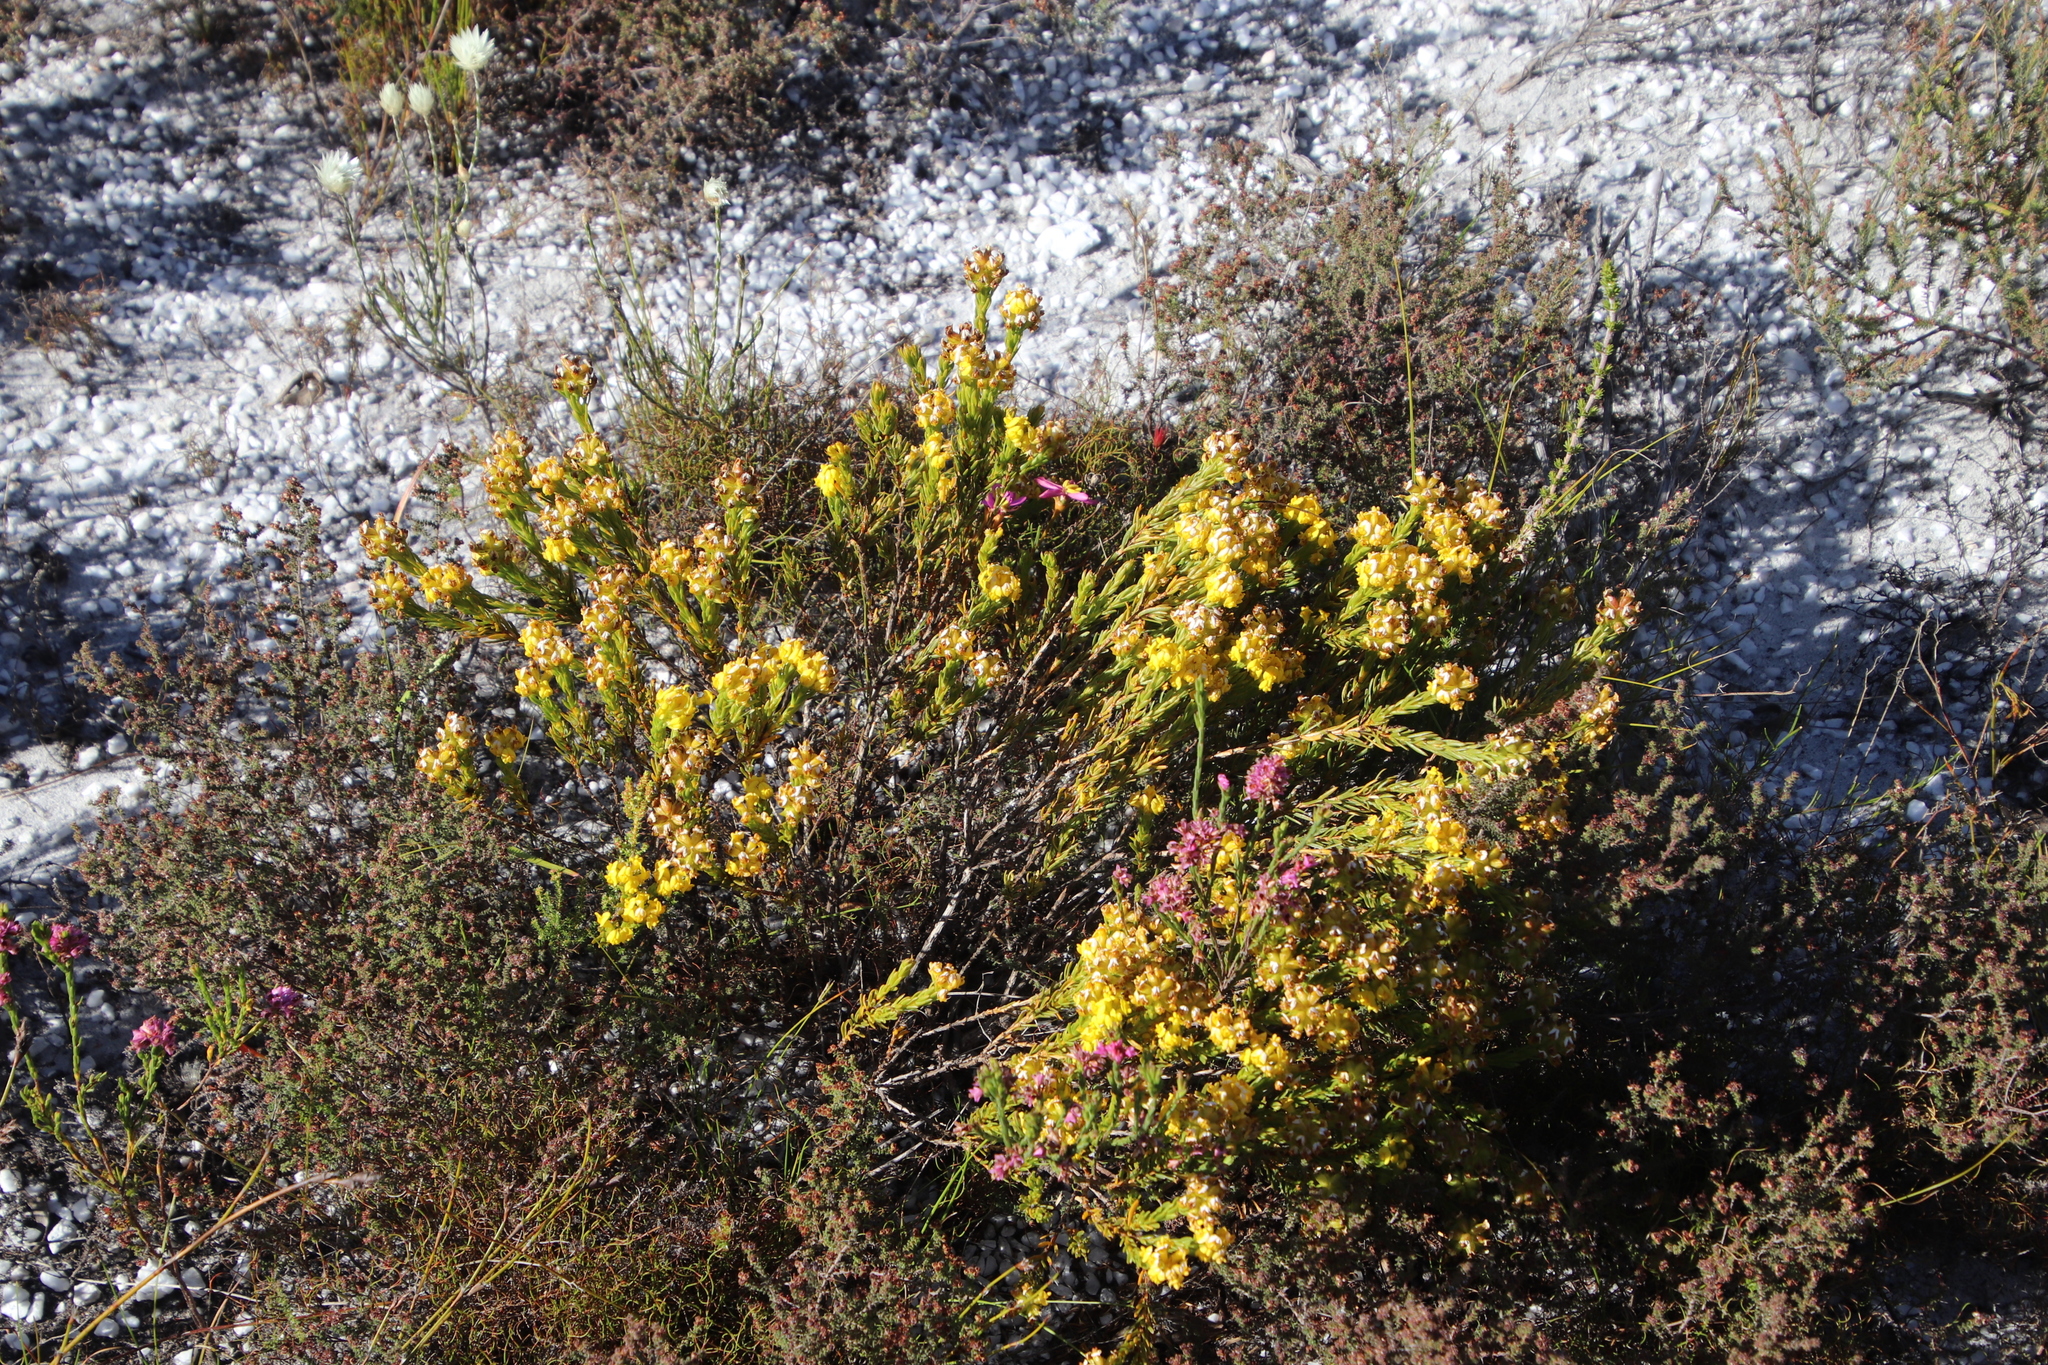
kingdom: Plantae
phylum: Tracheophyta
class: Magnoliopsida
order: Fabales
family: Fabaceae
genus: Aspalathus
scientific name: Aspalathus callosa
